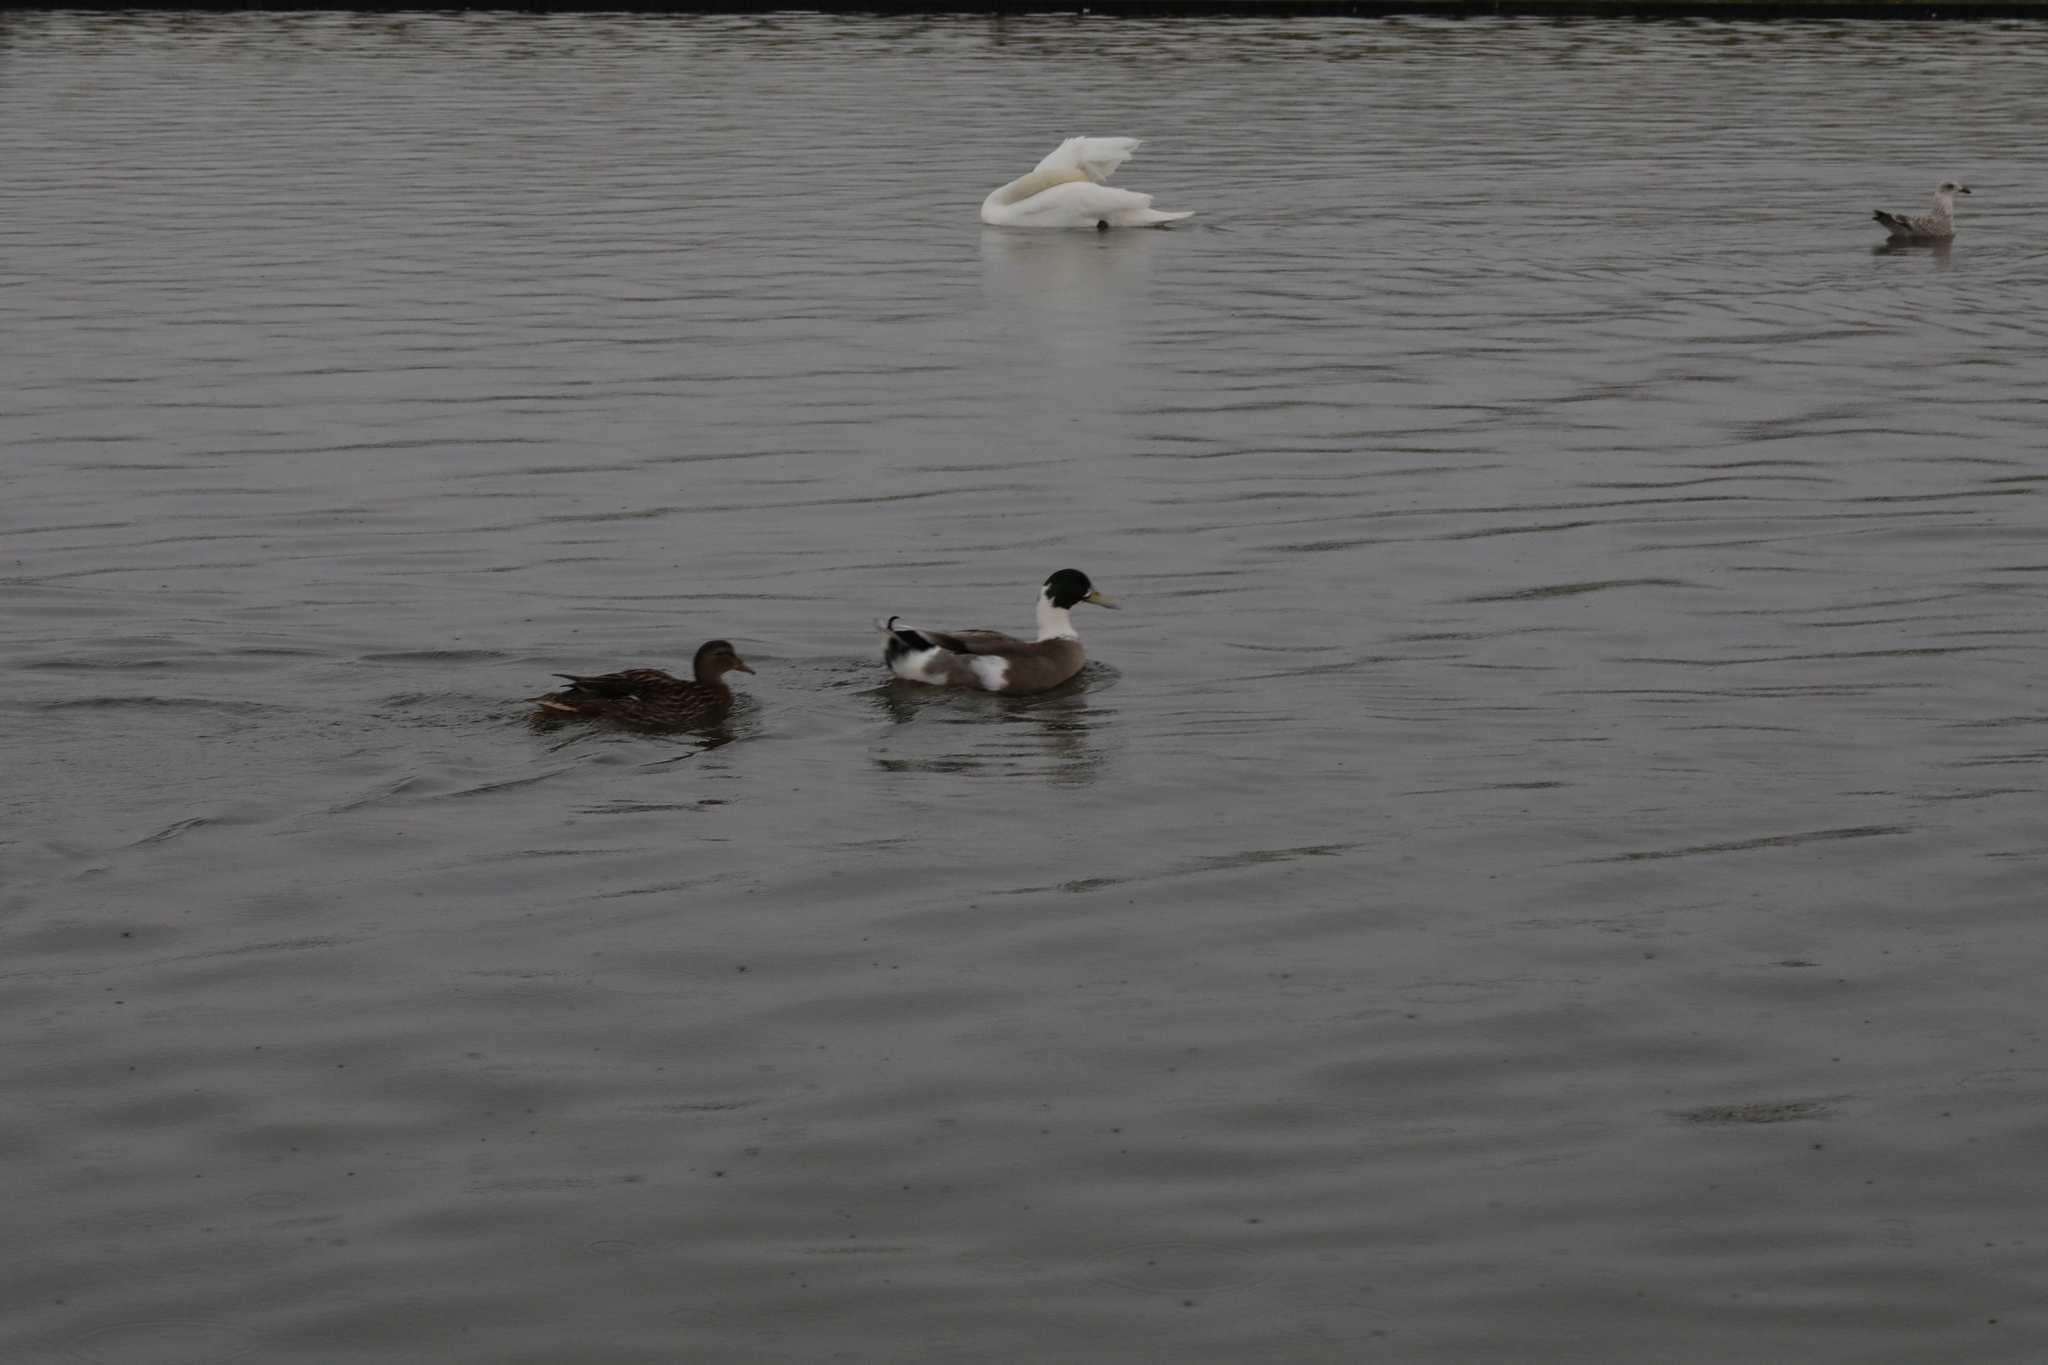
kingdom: Animalia
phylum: Chordata
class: Aves
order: Anseriformes
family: Anatidae
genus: Anas
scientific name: Anas platyrhynchos
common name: Mallard
